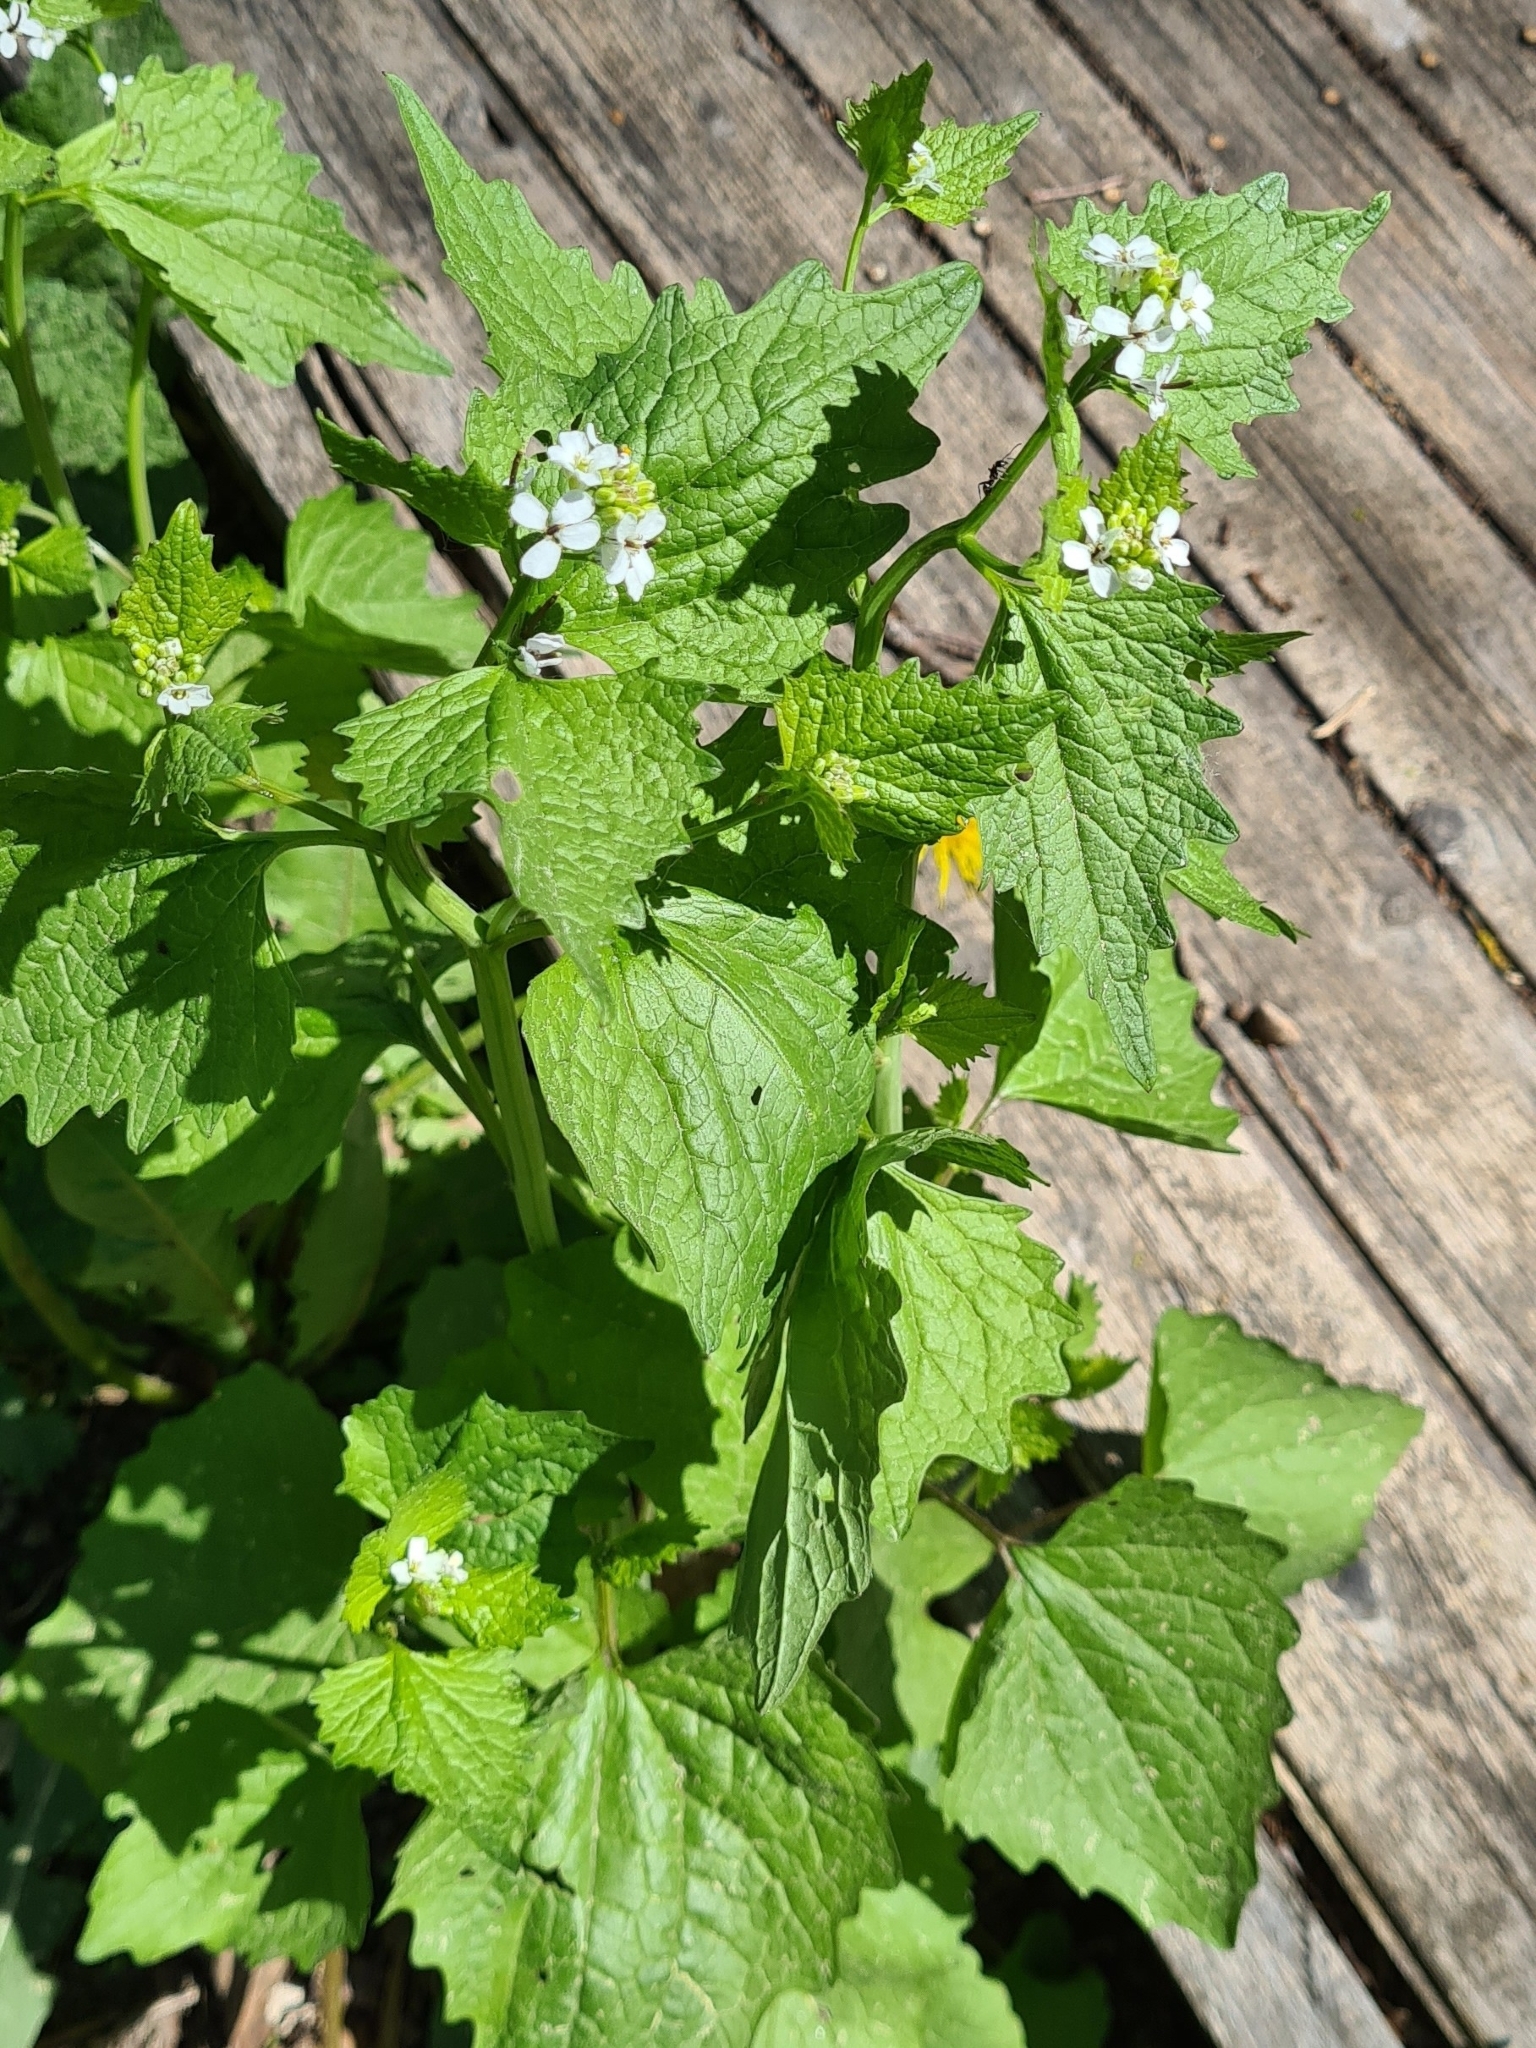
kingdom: Plantae
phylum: Tracheophyta
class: Magnoliopsida
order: Brassicales
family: Brassicaceae
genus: Alliaria
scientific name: Alliaria petiolata
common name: Garlic mustard
